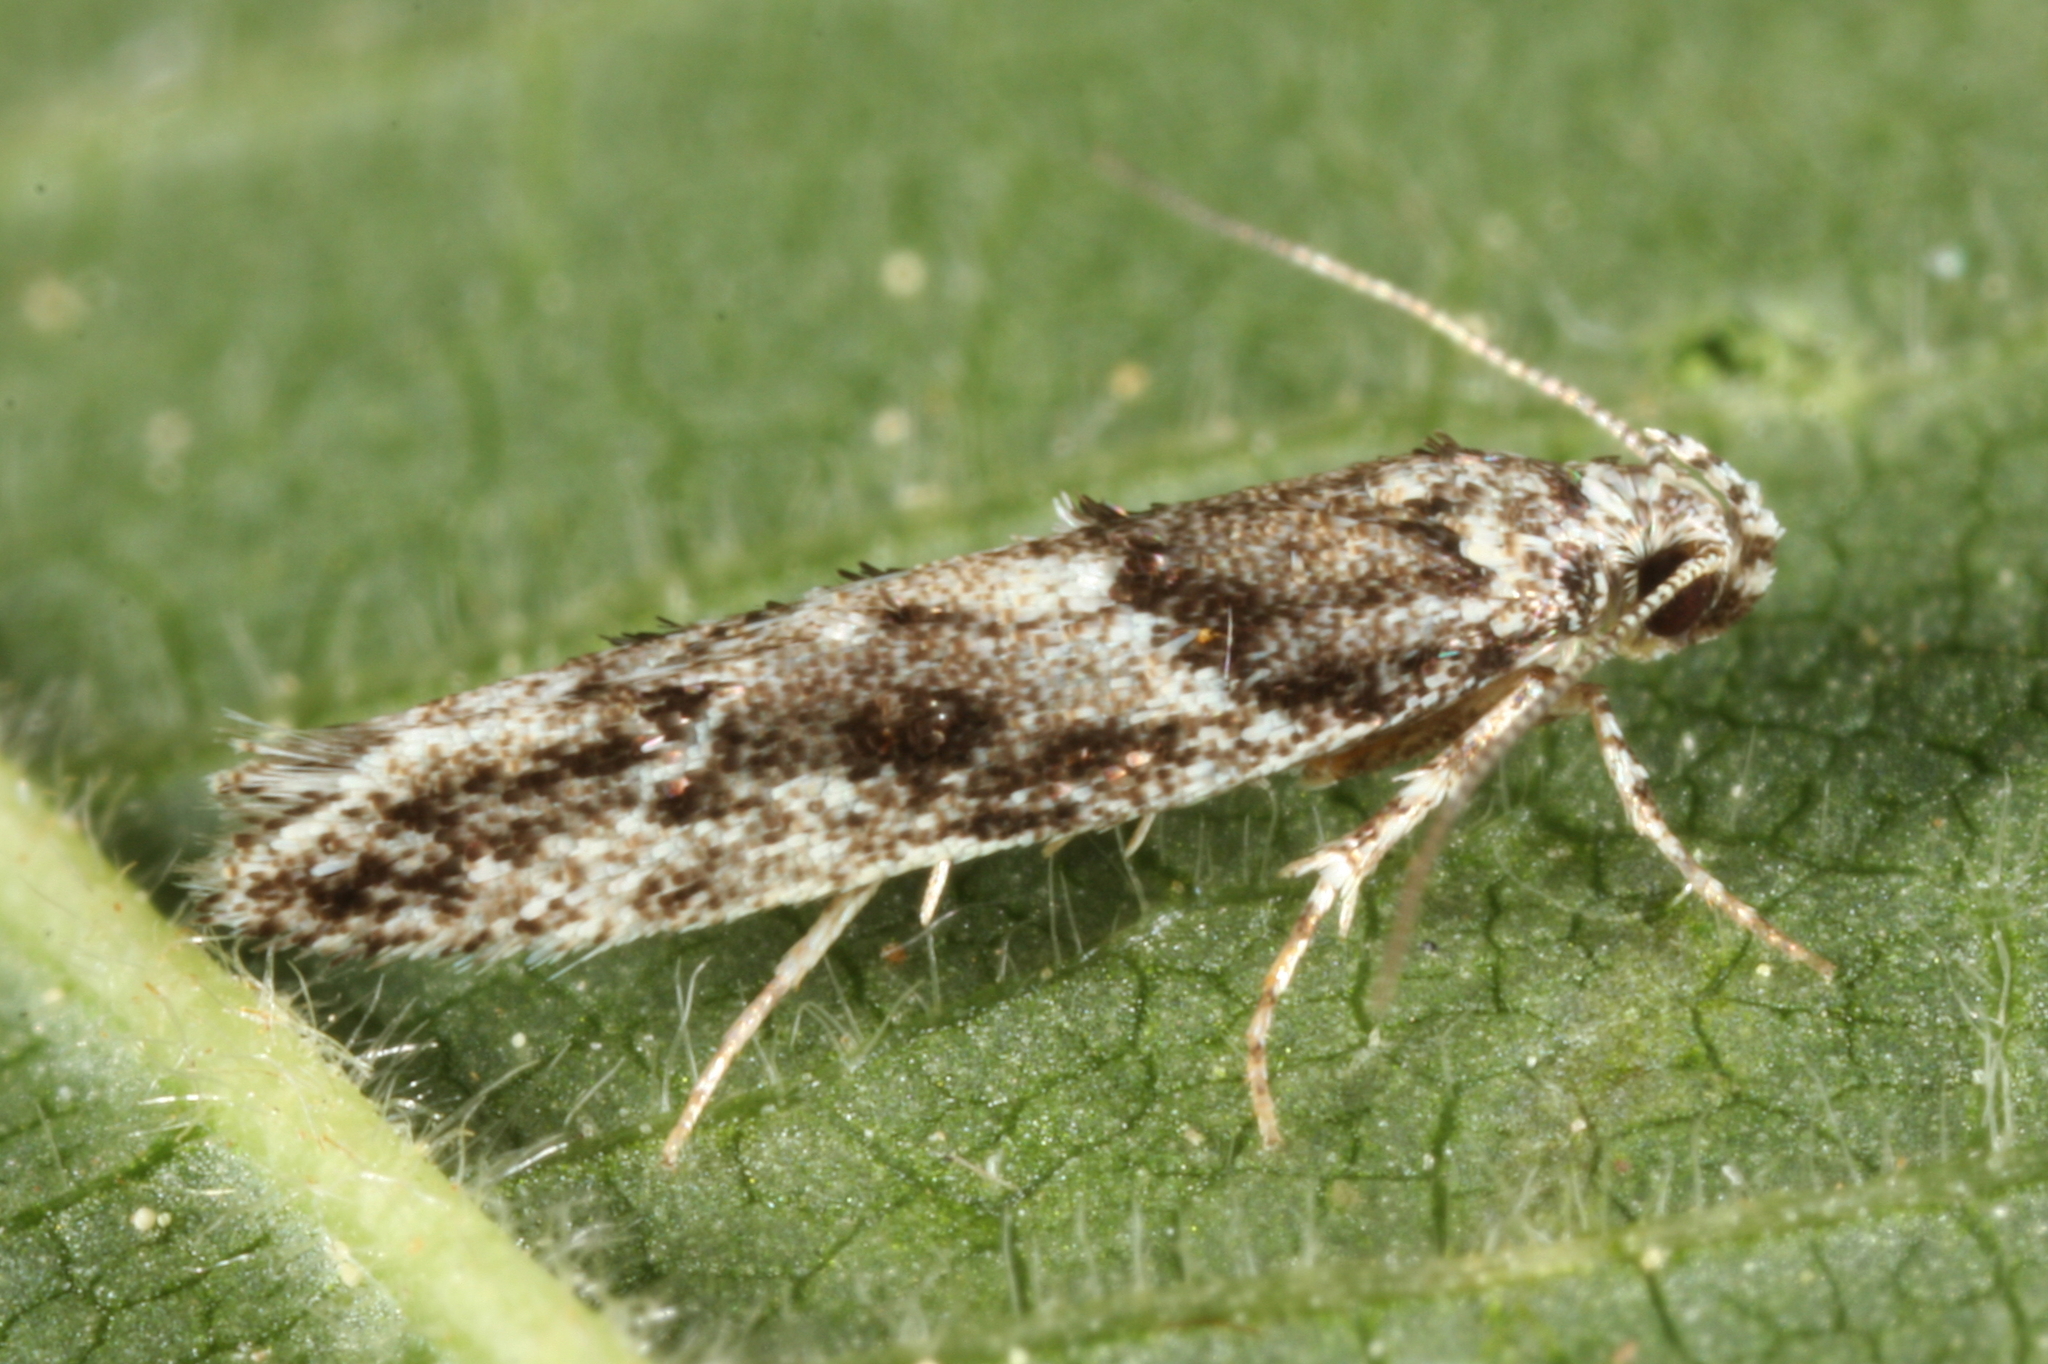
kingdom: Animalia
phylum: Arthropoda
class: Insecta
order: Lepidoptera
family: Gelechiidae
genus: Recurvaria
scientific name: Recurvaria nanella
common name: Gelechiid moth
